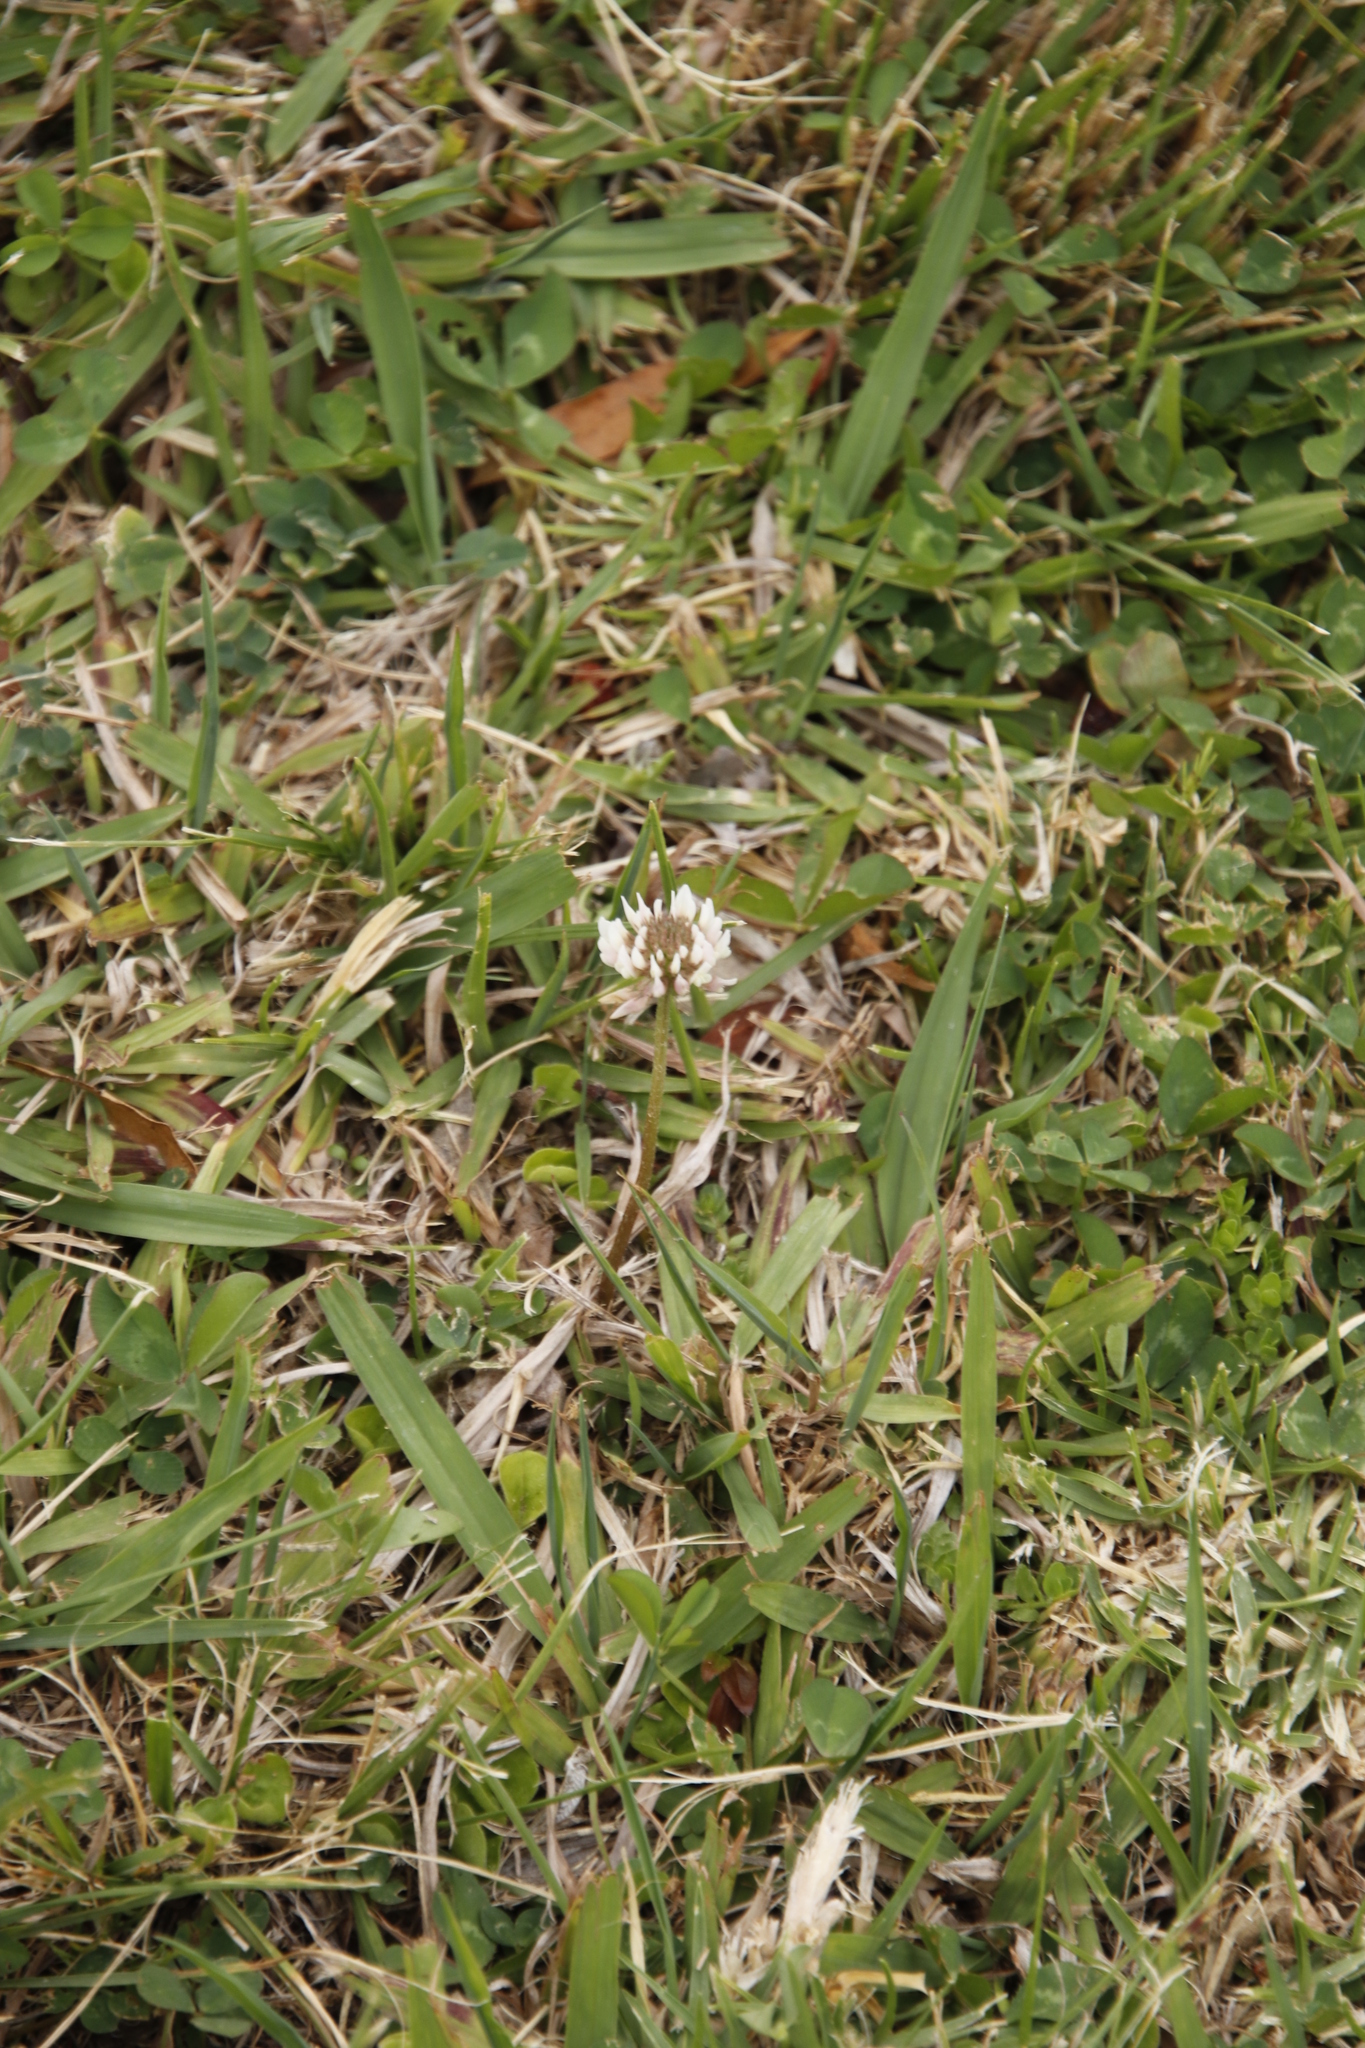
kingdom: Plantae
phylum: Tracheophyta
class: Magnoliopsida
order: Fabales
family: Fabaceae
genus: Trifolium
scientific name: Trifolium repens
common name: White clover
